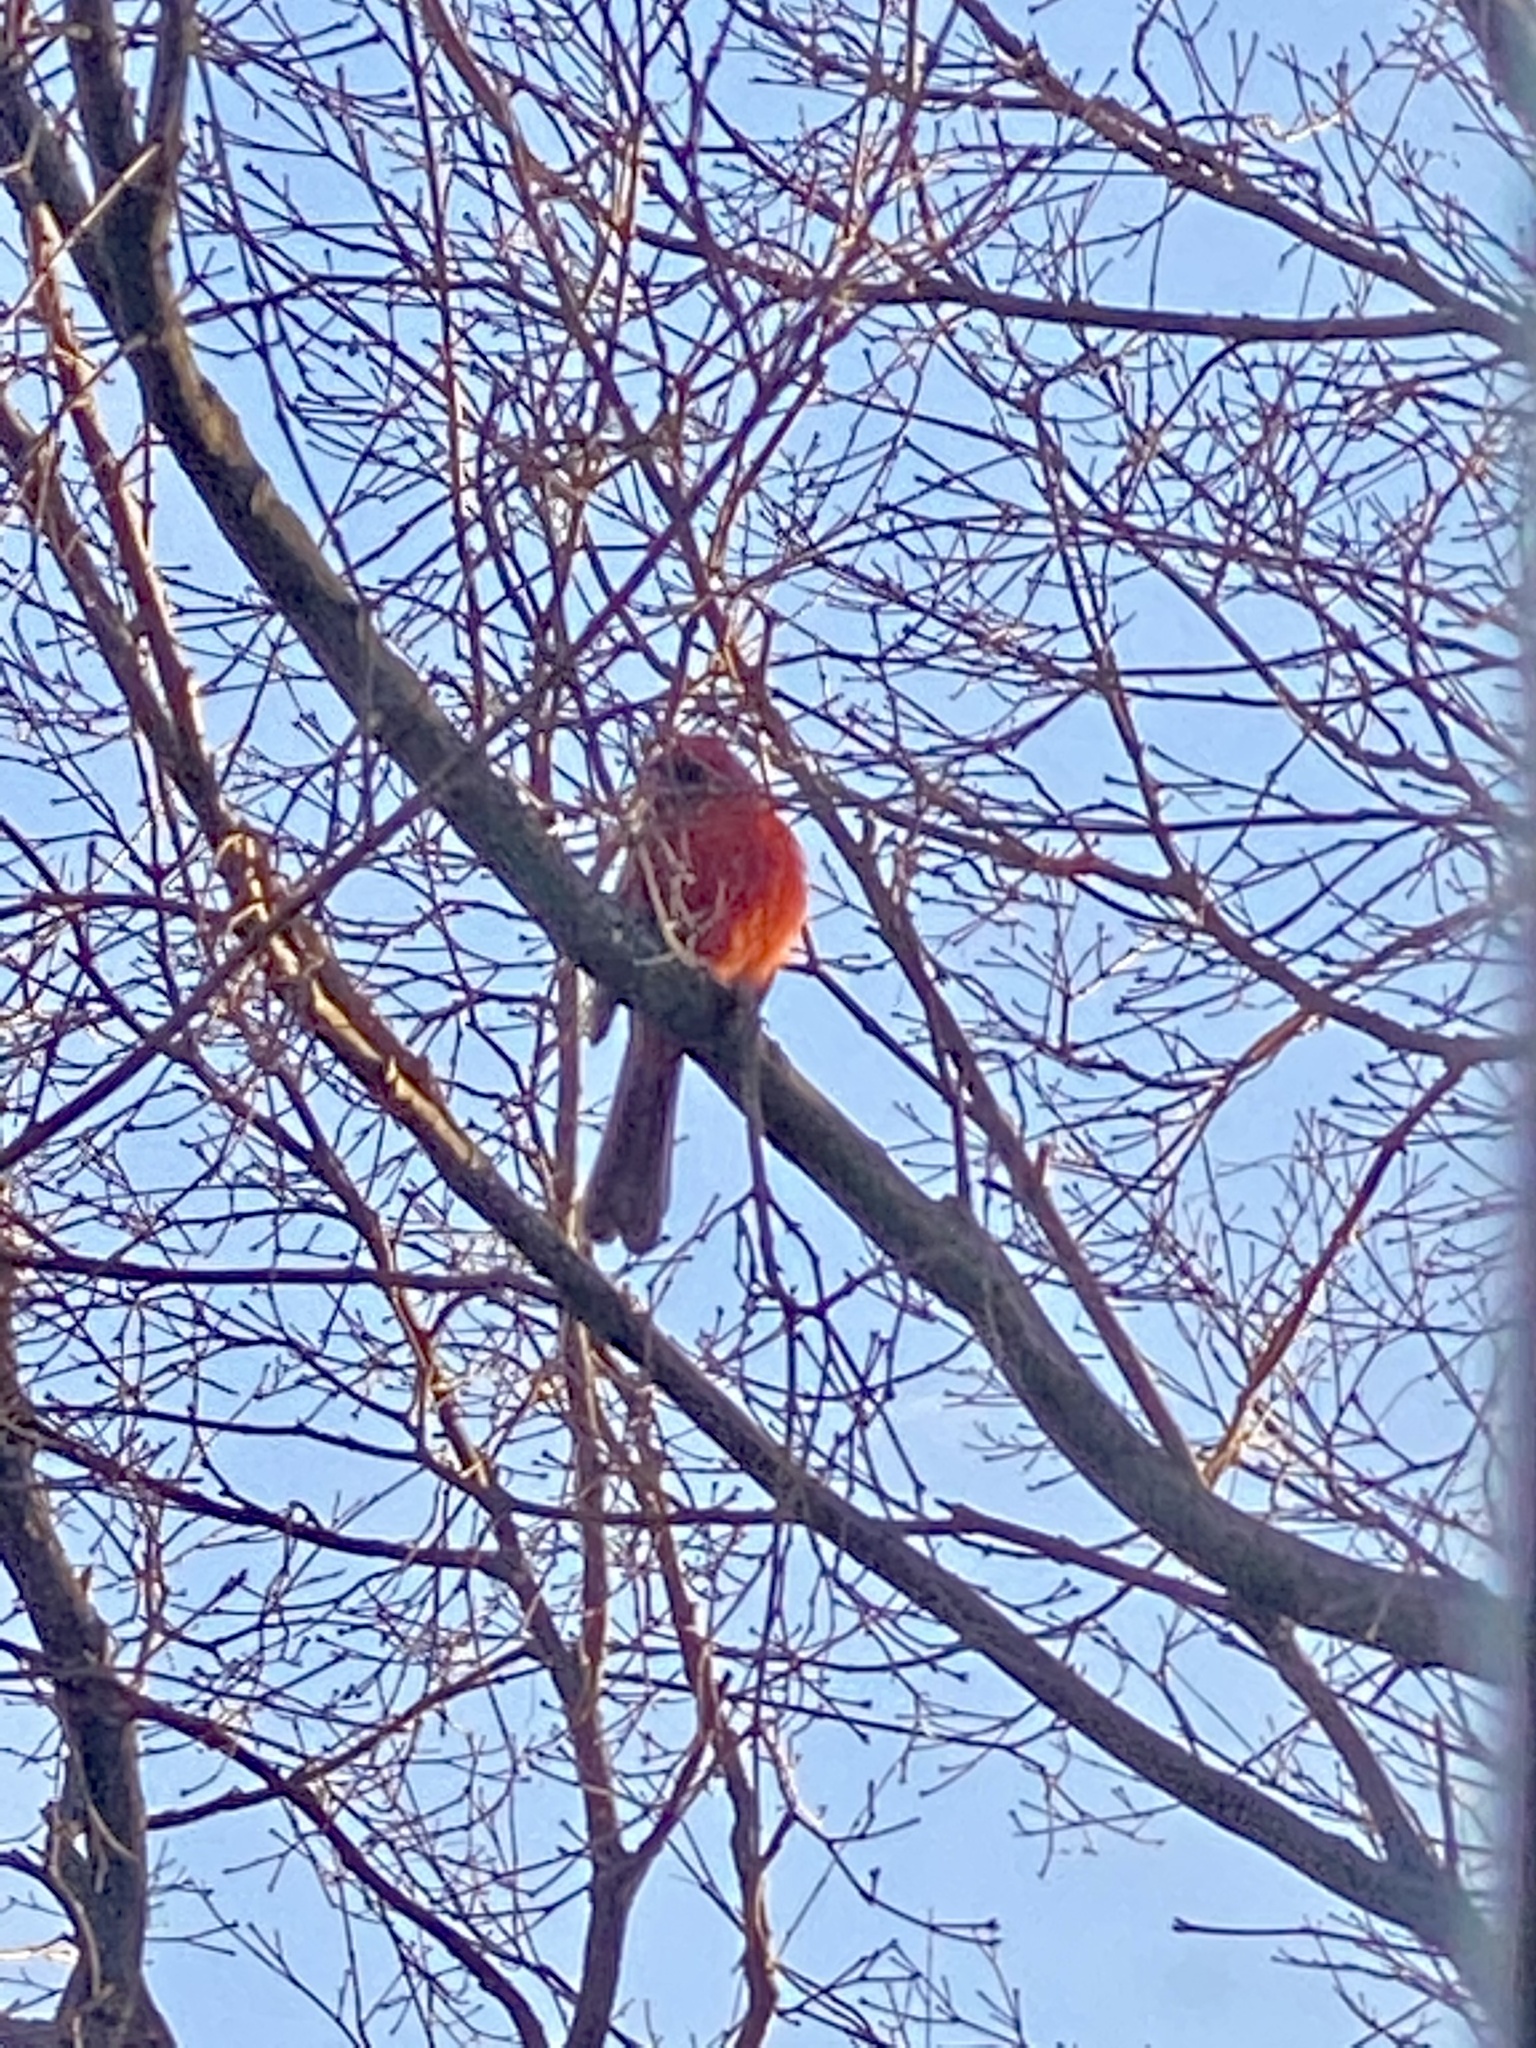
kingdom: Animalia
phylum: Chordata
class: Aves
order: Passeriformes
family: Cardinalidae
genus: Cardinalis
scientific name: Cardinalis cardinalis
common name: Northern cardinal
